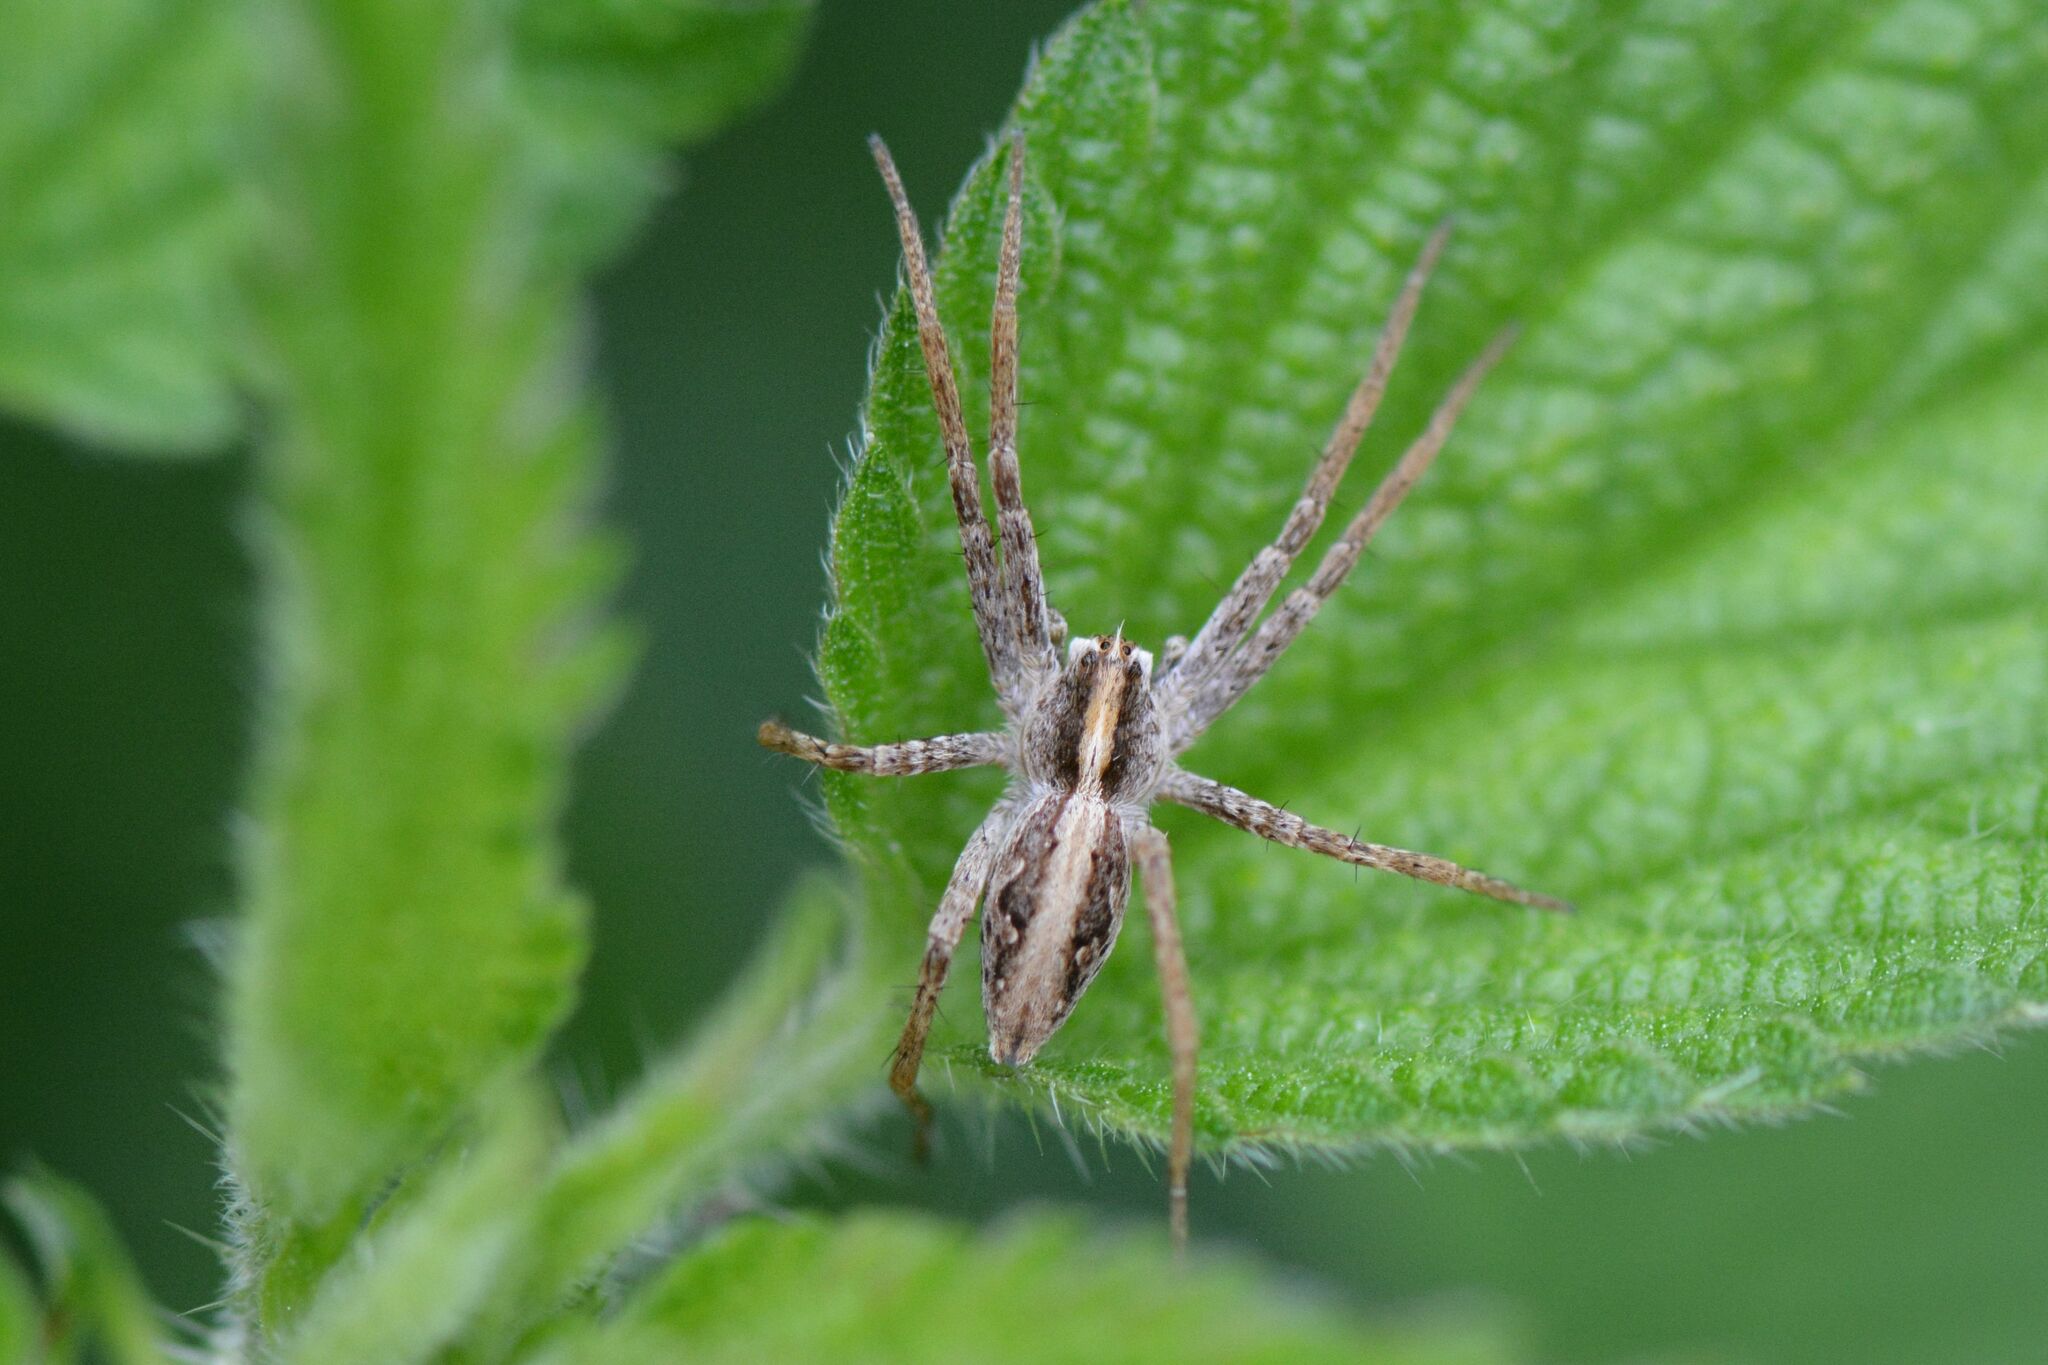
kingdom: Animalia
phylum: Arthropoda
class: Arachnida
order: Araneae
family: Pisauridae
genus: Pisaura
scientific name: Pisaura mirabilis
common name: Tent spider
